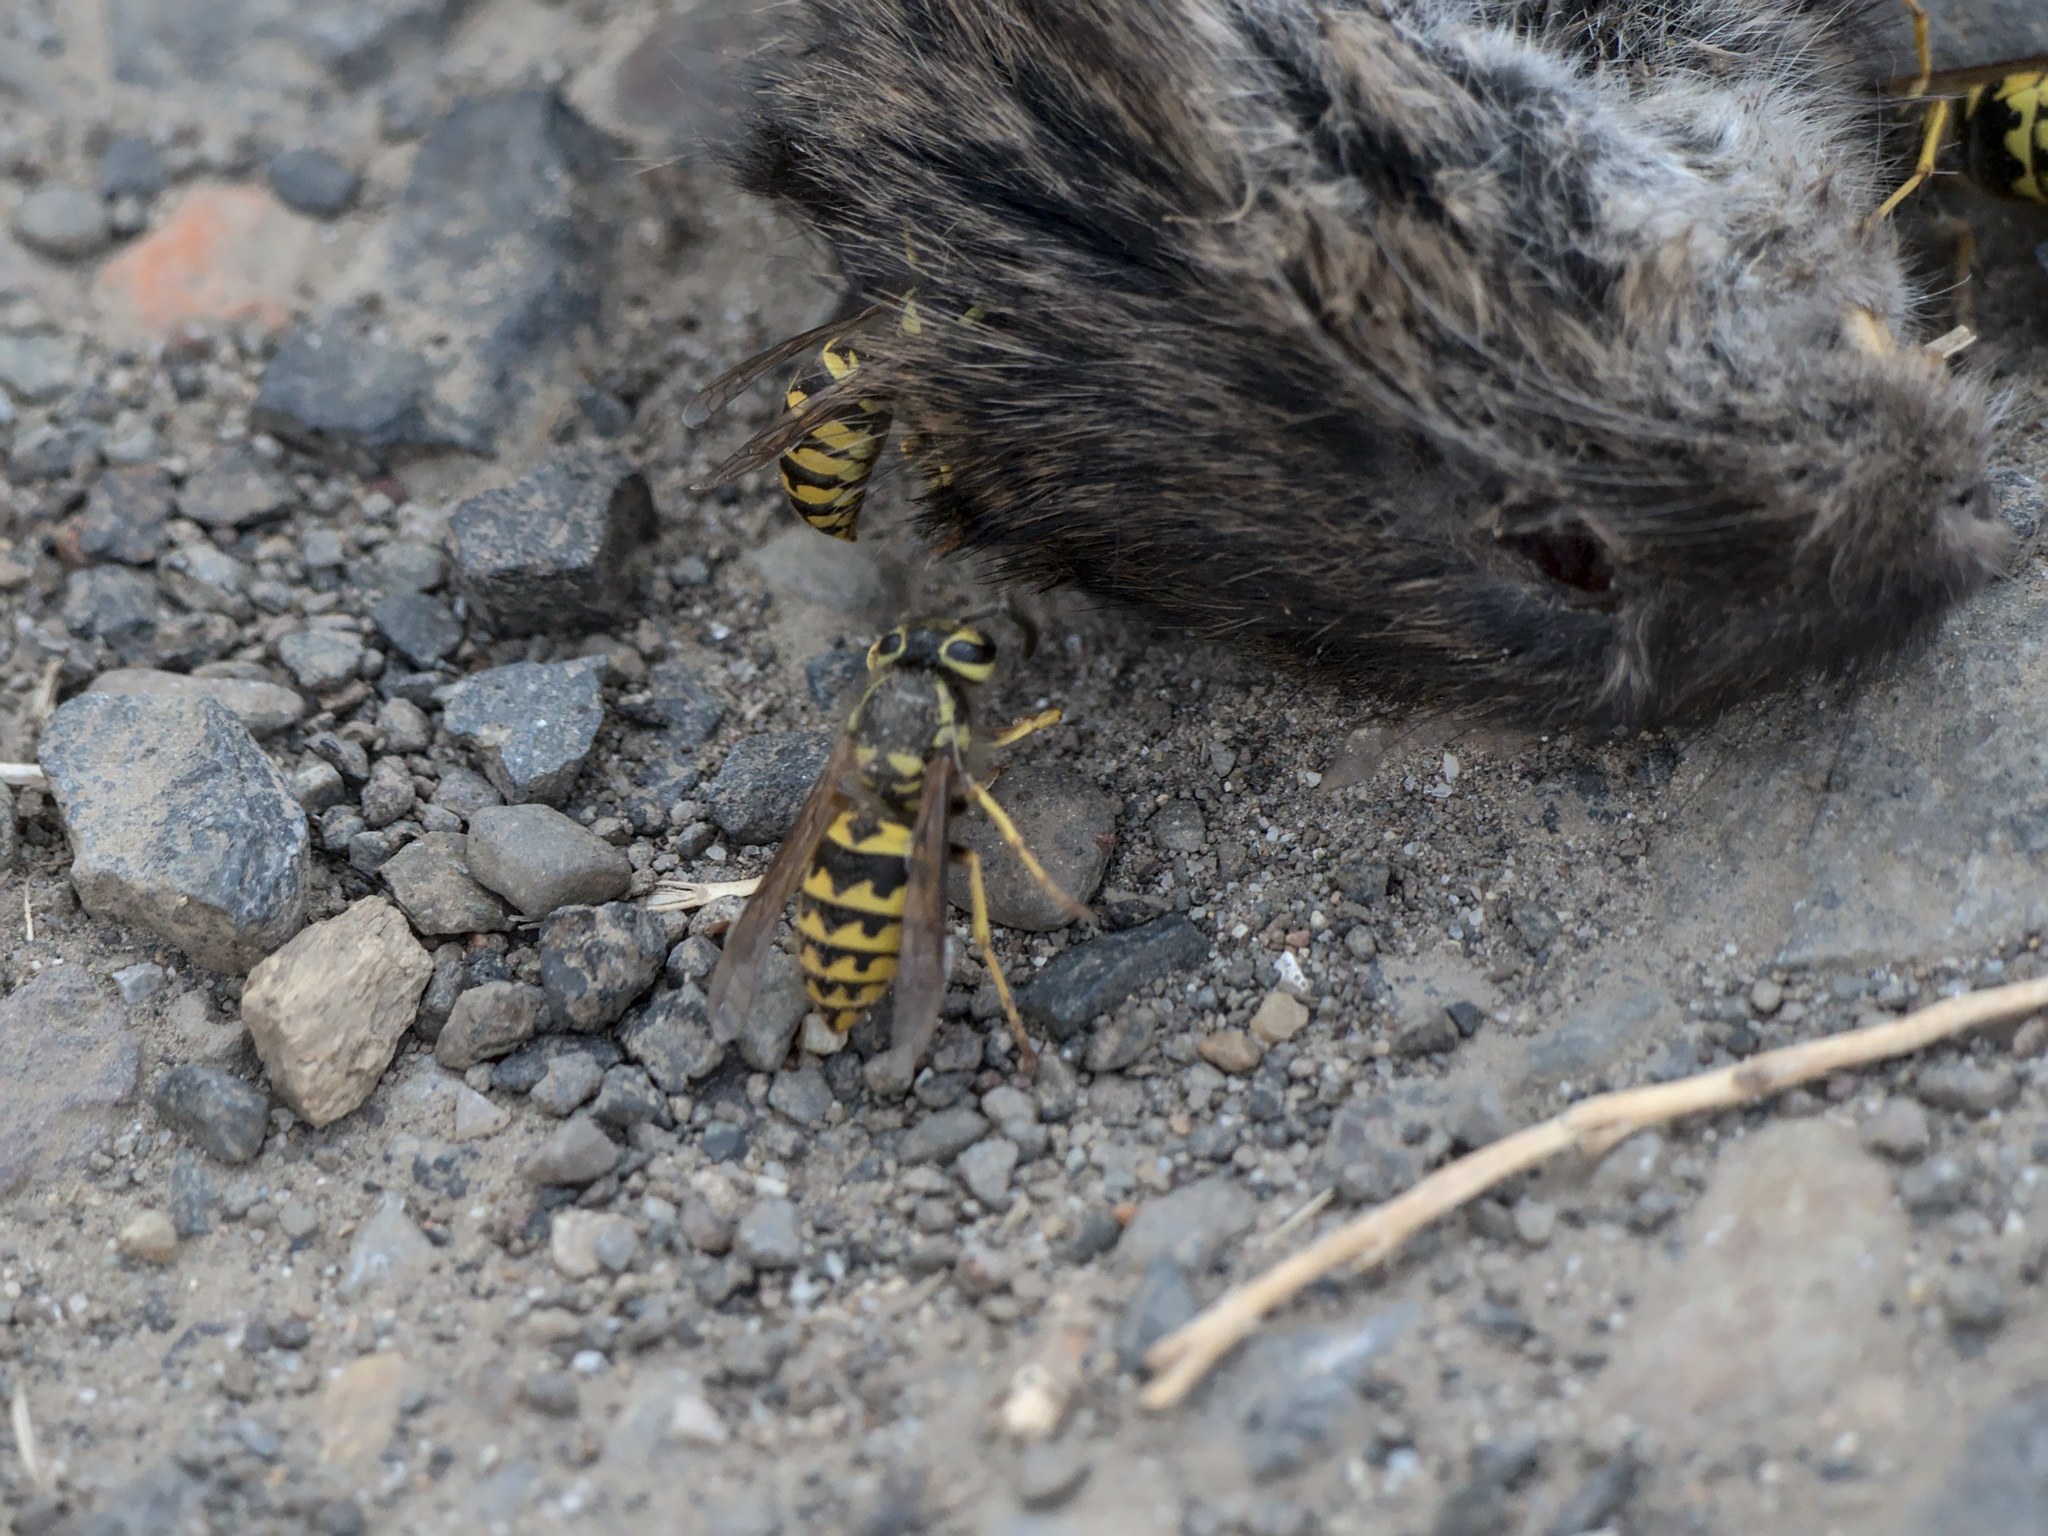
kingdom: Animalia
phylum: Arthropoda
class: Insecta
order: Hymenoptera
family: Vespidae
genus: Vespula
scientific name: Vespula pensylvanica
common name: Western yellowjacket
